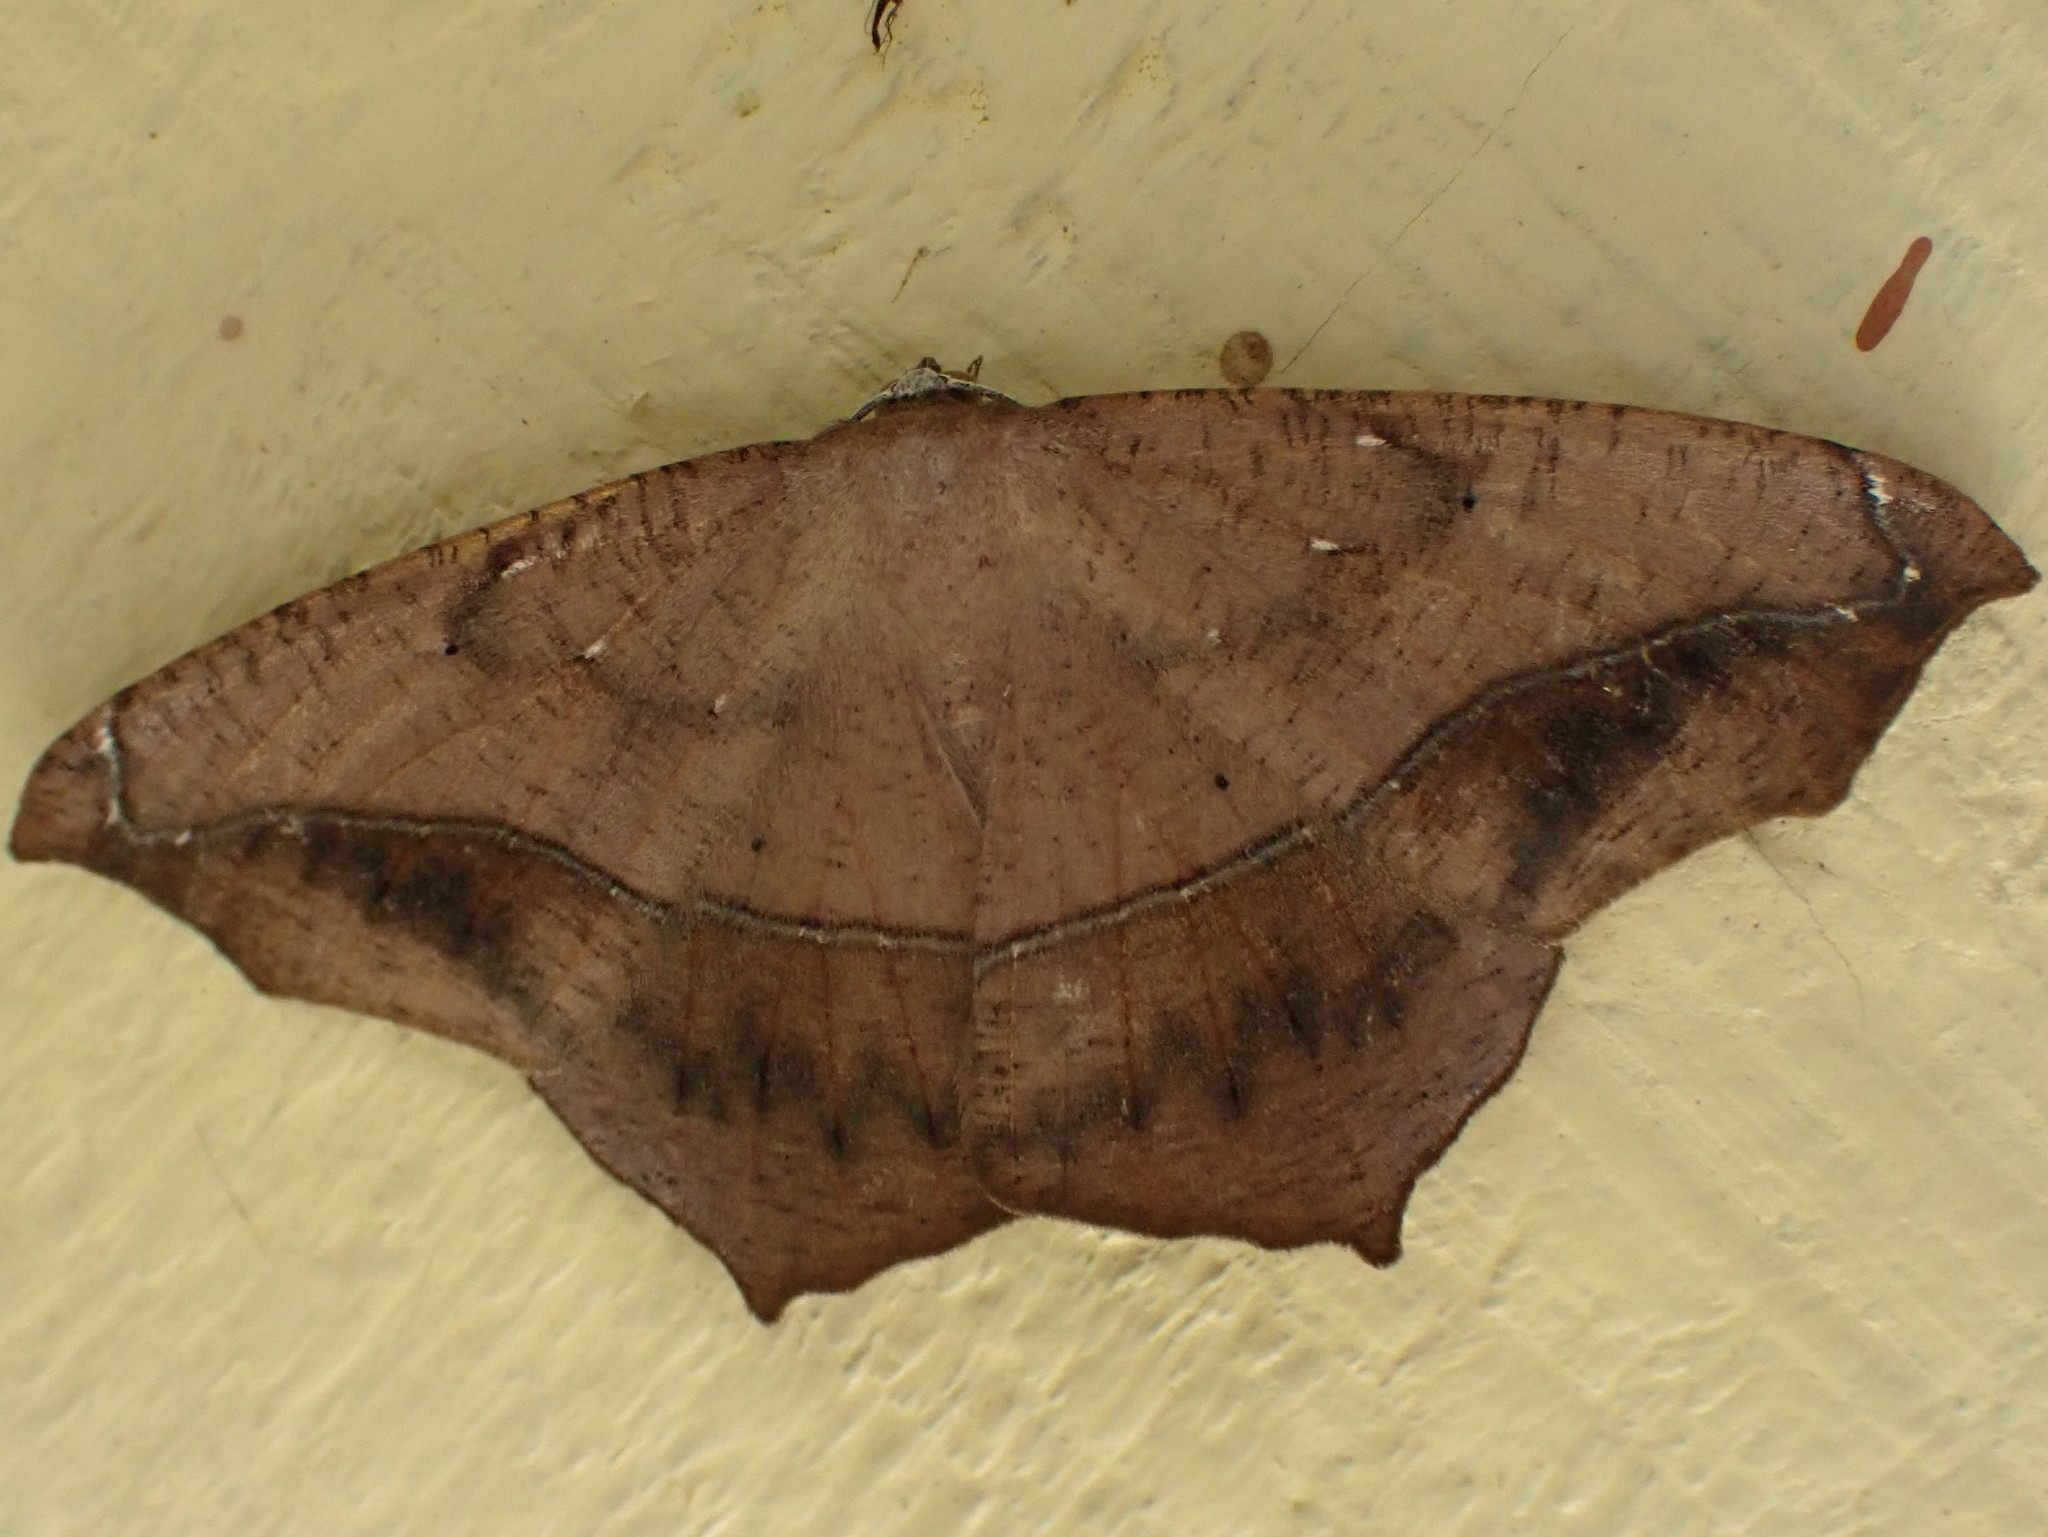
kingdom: Animalia
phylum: Arthropoda
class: Insecta
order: Lepidoptera
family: Geometridae
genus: Prochoerodes
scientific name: Prochoerodes lineola
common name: Large maple spanworm
